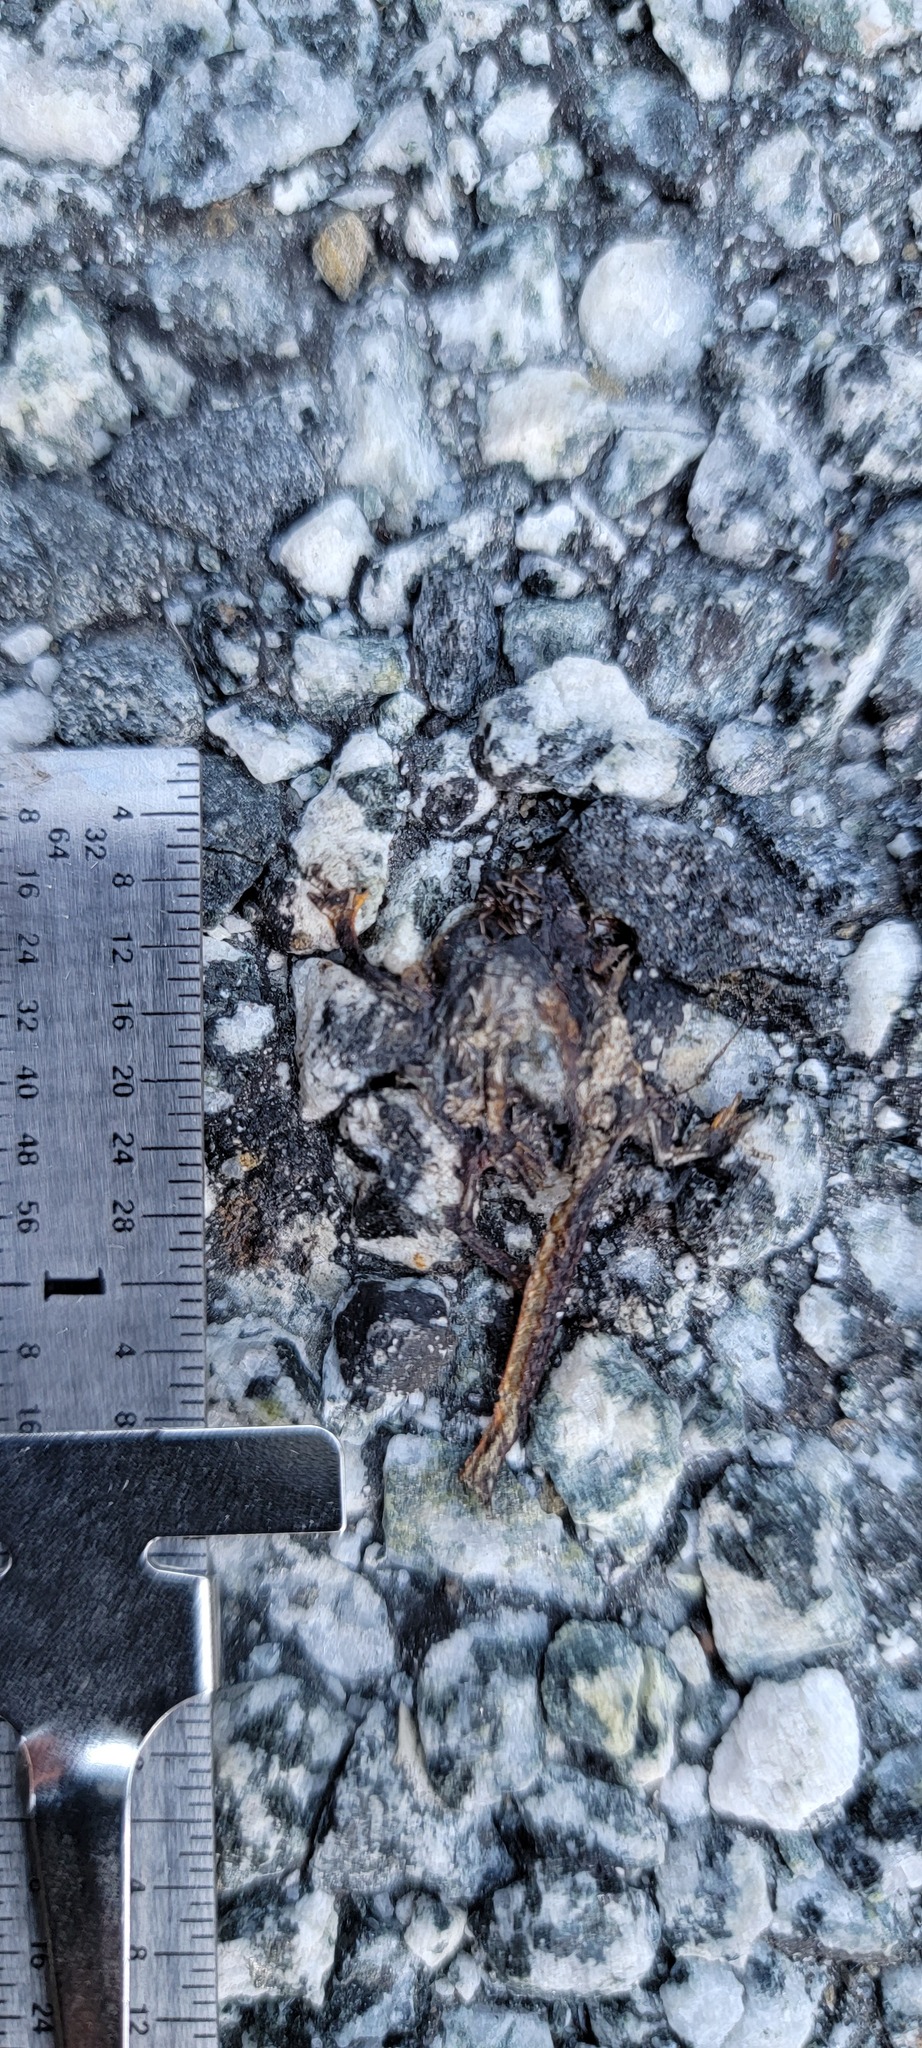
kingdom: Animalia
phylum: Chordata
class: Amphibia
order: Caudata
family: Salamandridae
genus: Taricha
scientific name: Taricha
